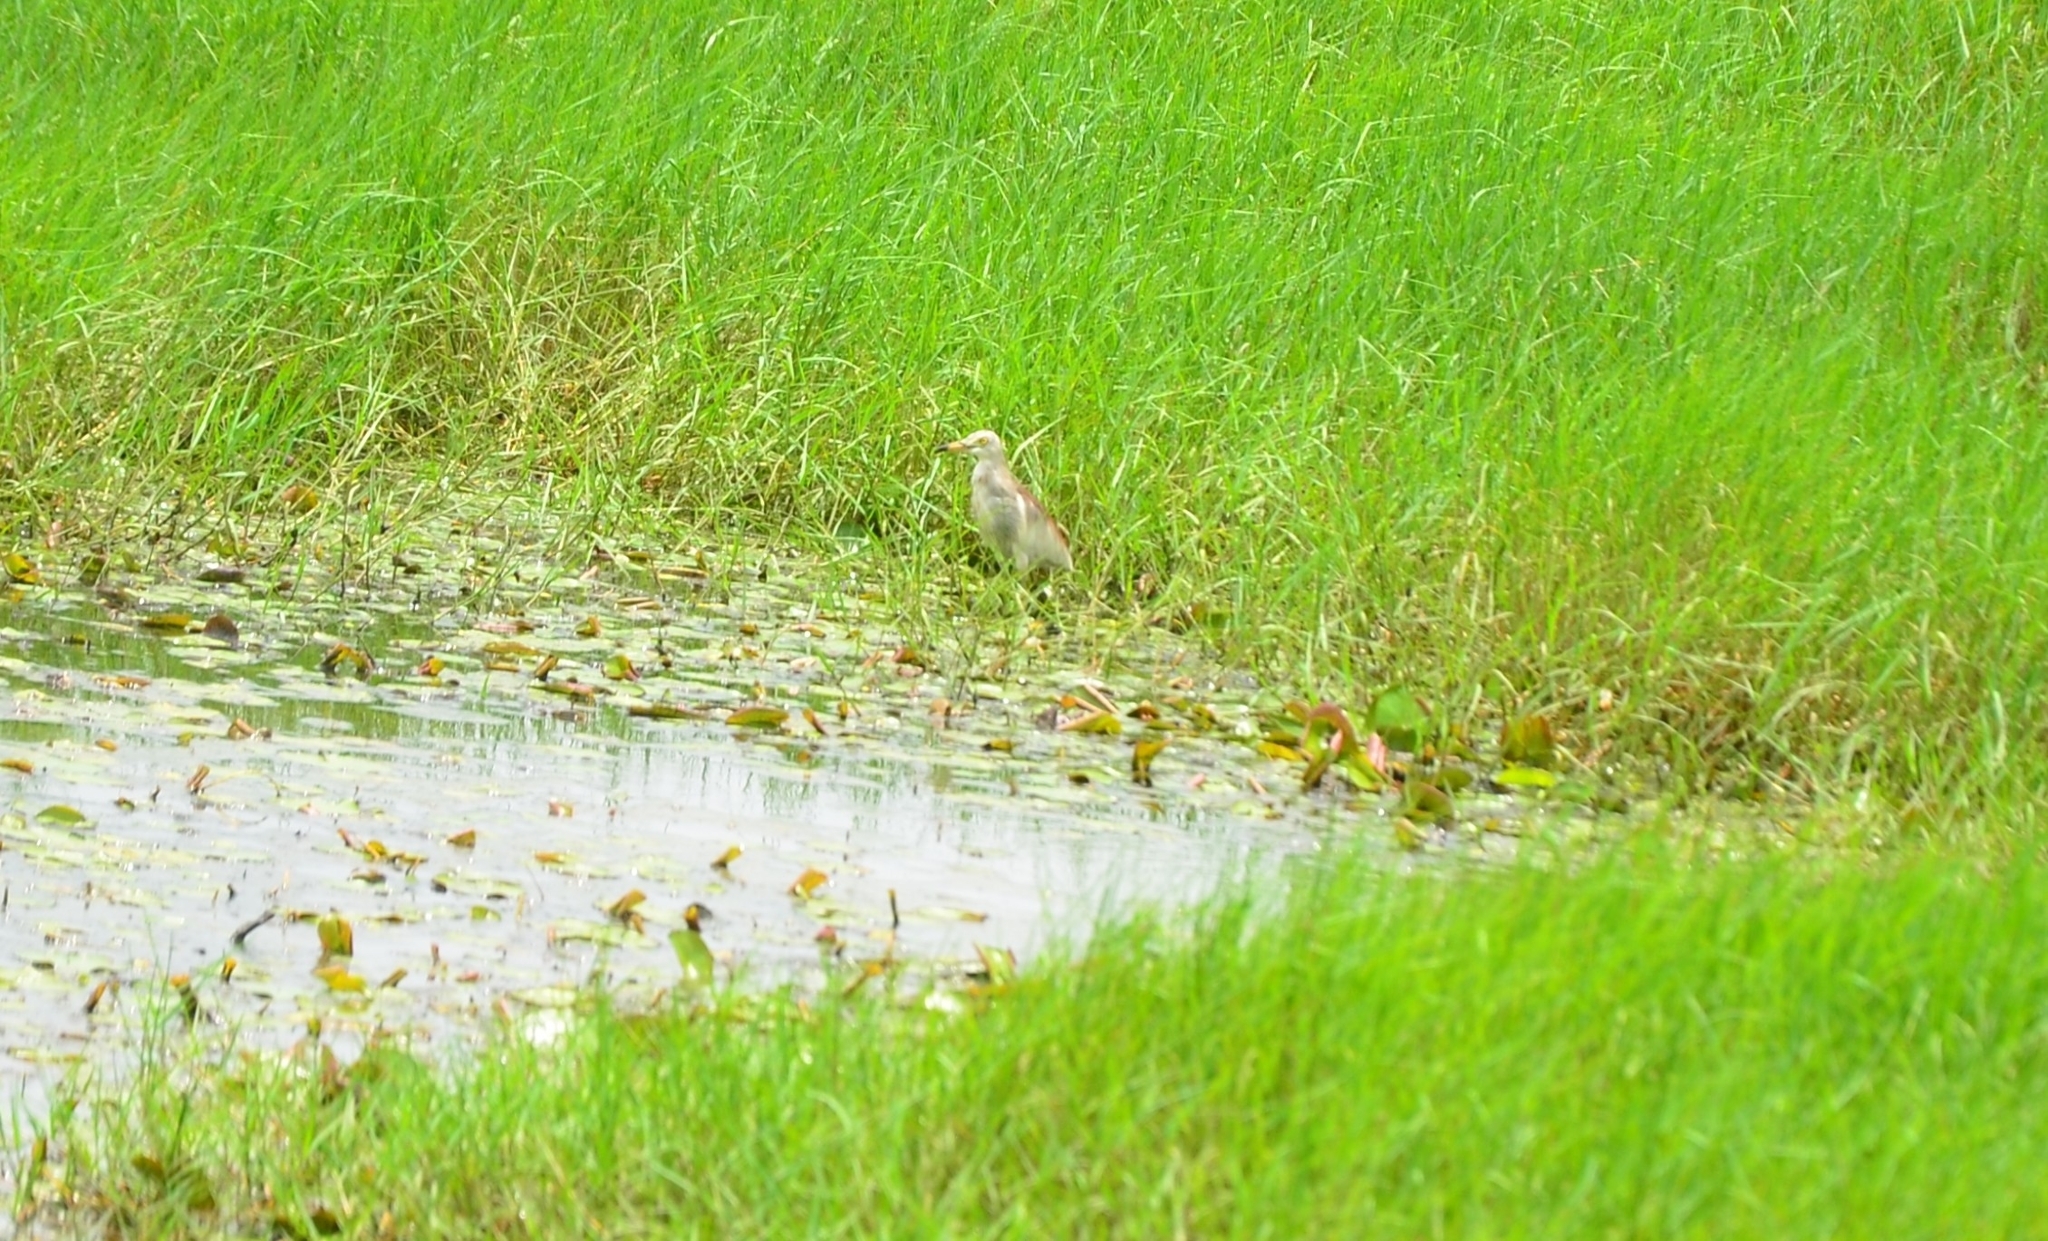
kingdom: Animalia
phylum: Chordata
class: Aves
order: Pelecaniformes
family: Ardeidae
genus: Ardeola
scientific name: Ardeola grayii
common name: Indian pond heron
